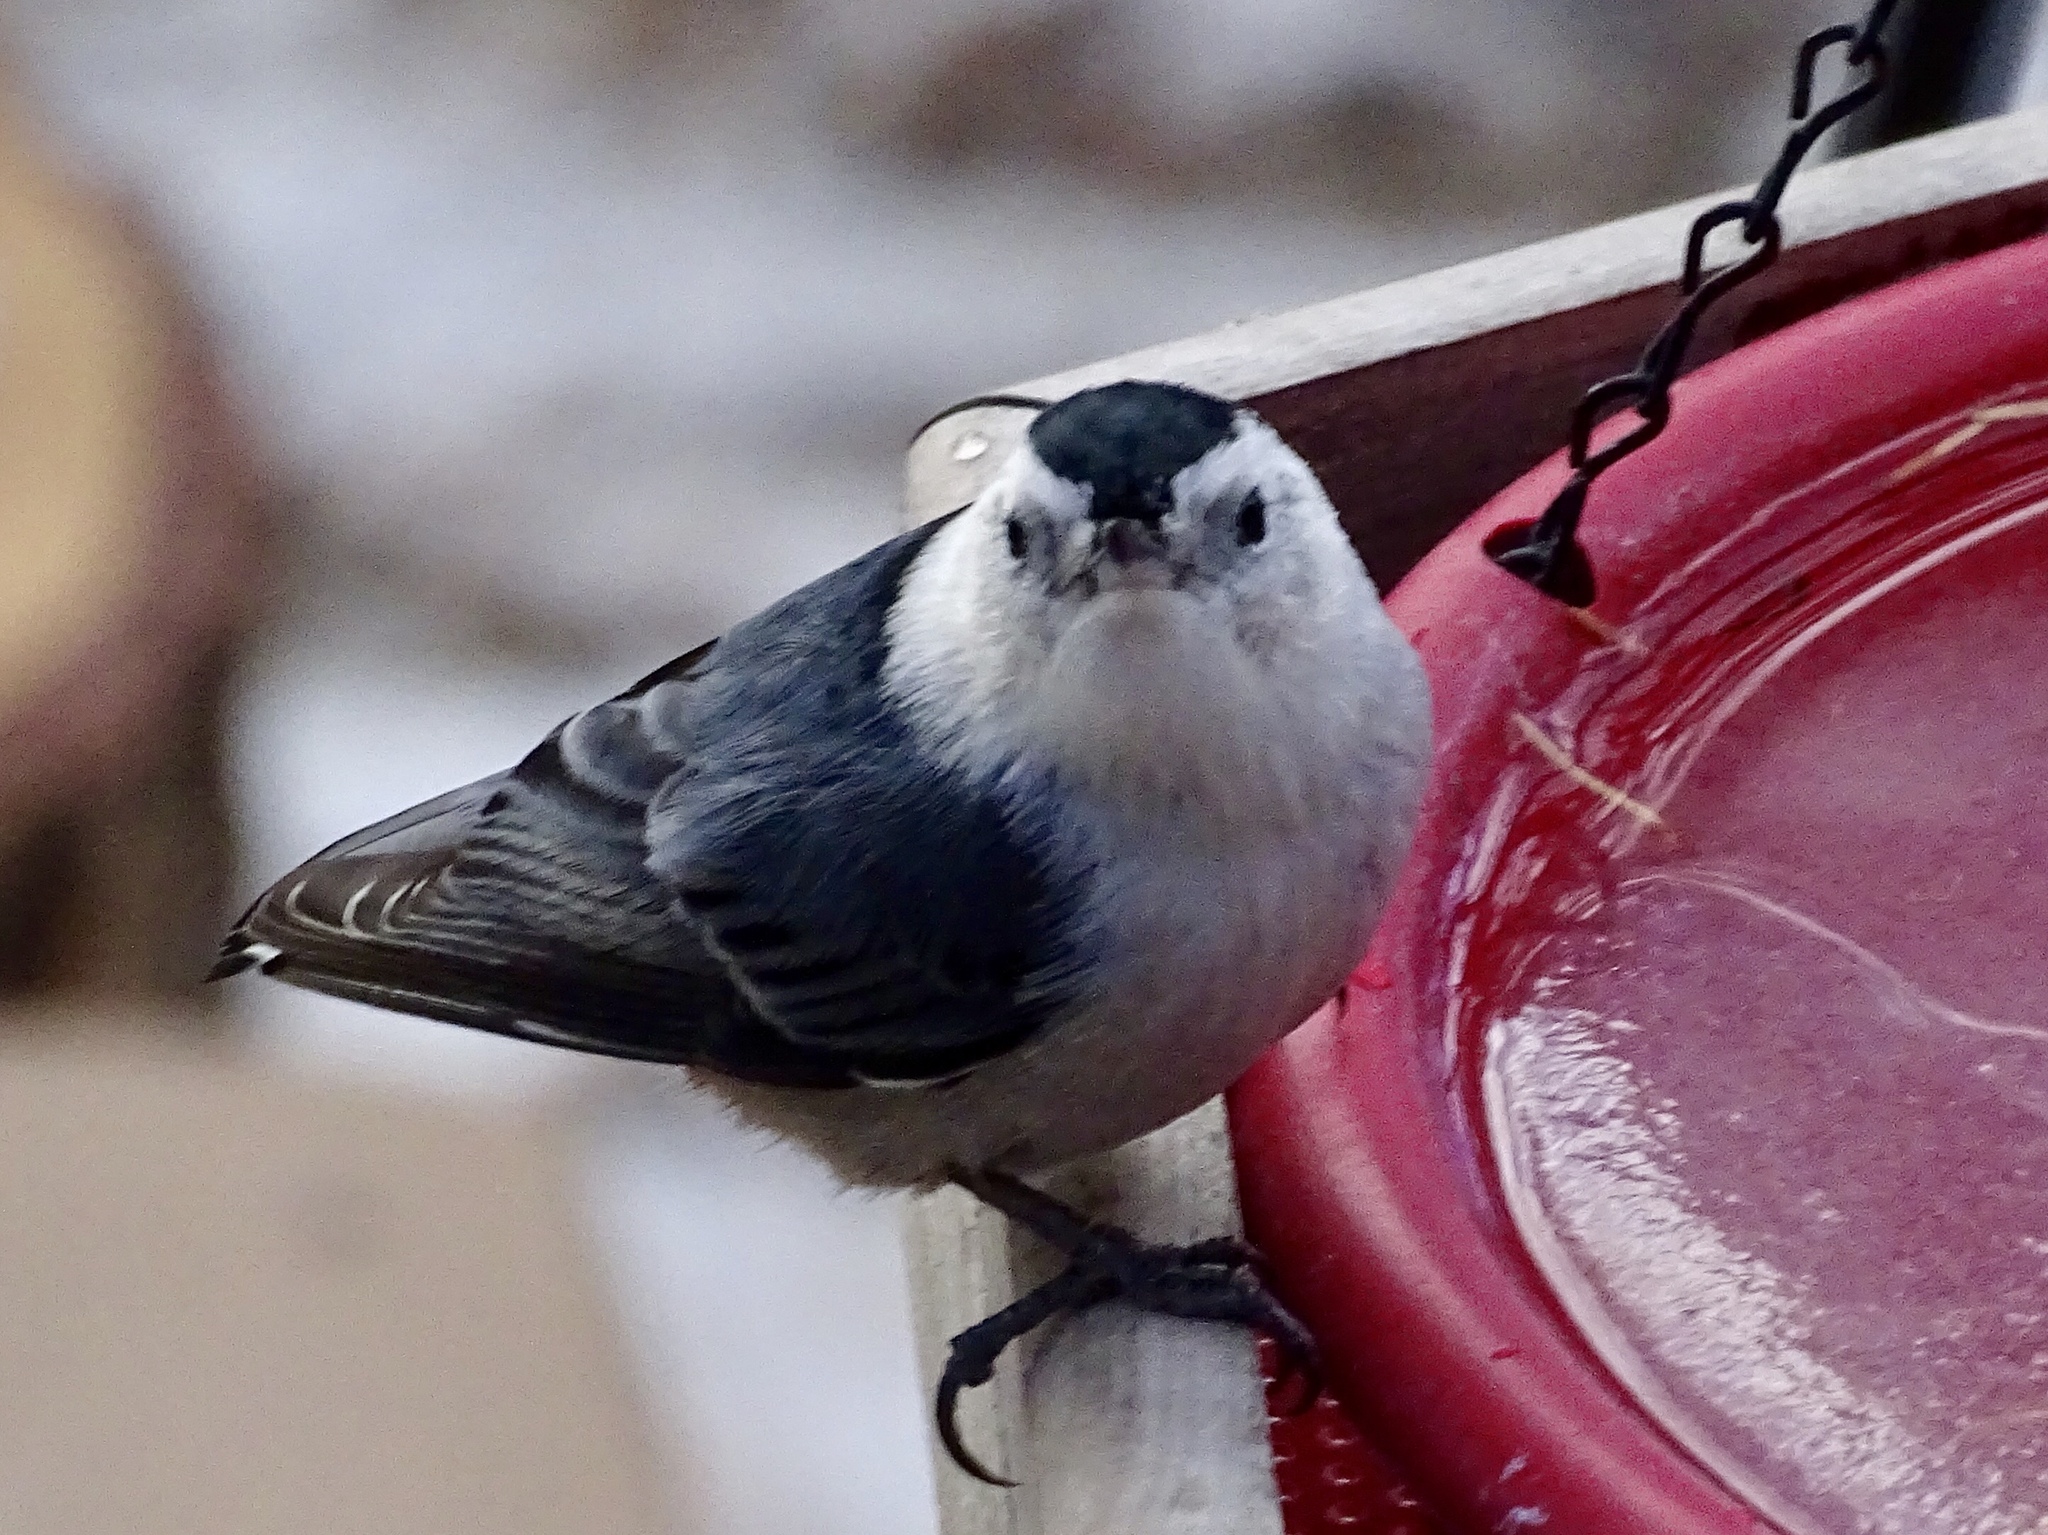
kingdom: Animalia
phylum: Chordata
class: Aves
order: Passeriformes
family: Sittidae
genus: Sitta
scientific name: Sitta carolinensis
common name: White-breasted nuthatch
